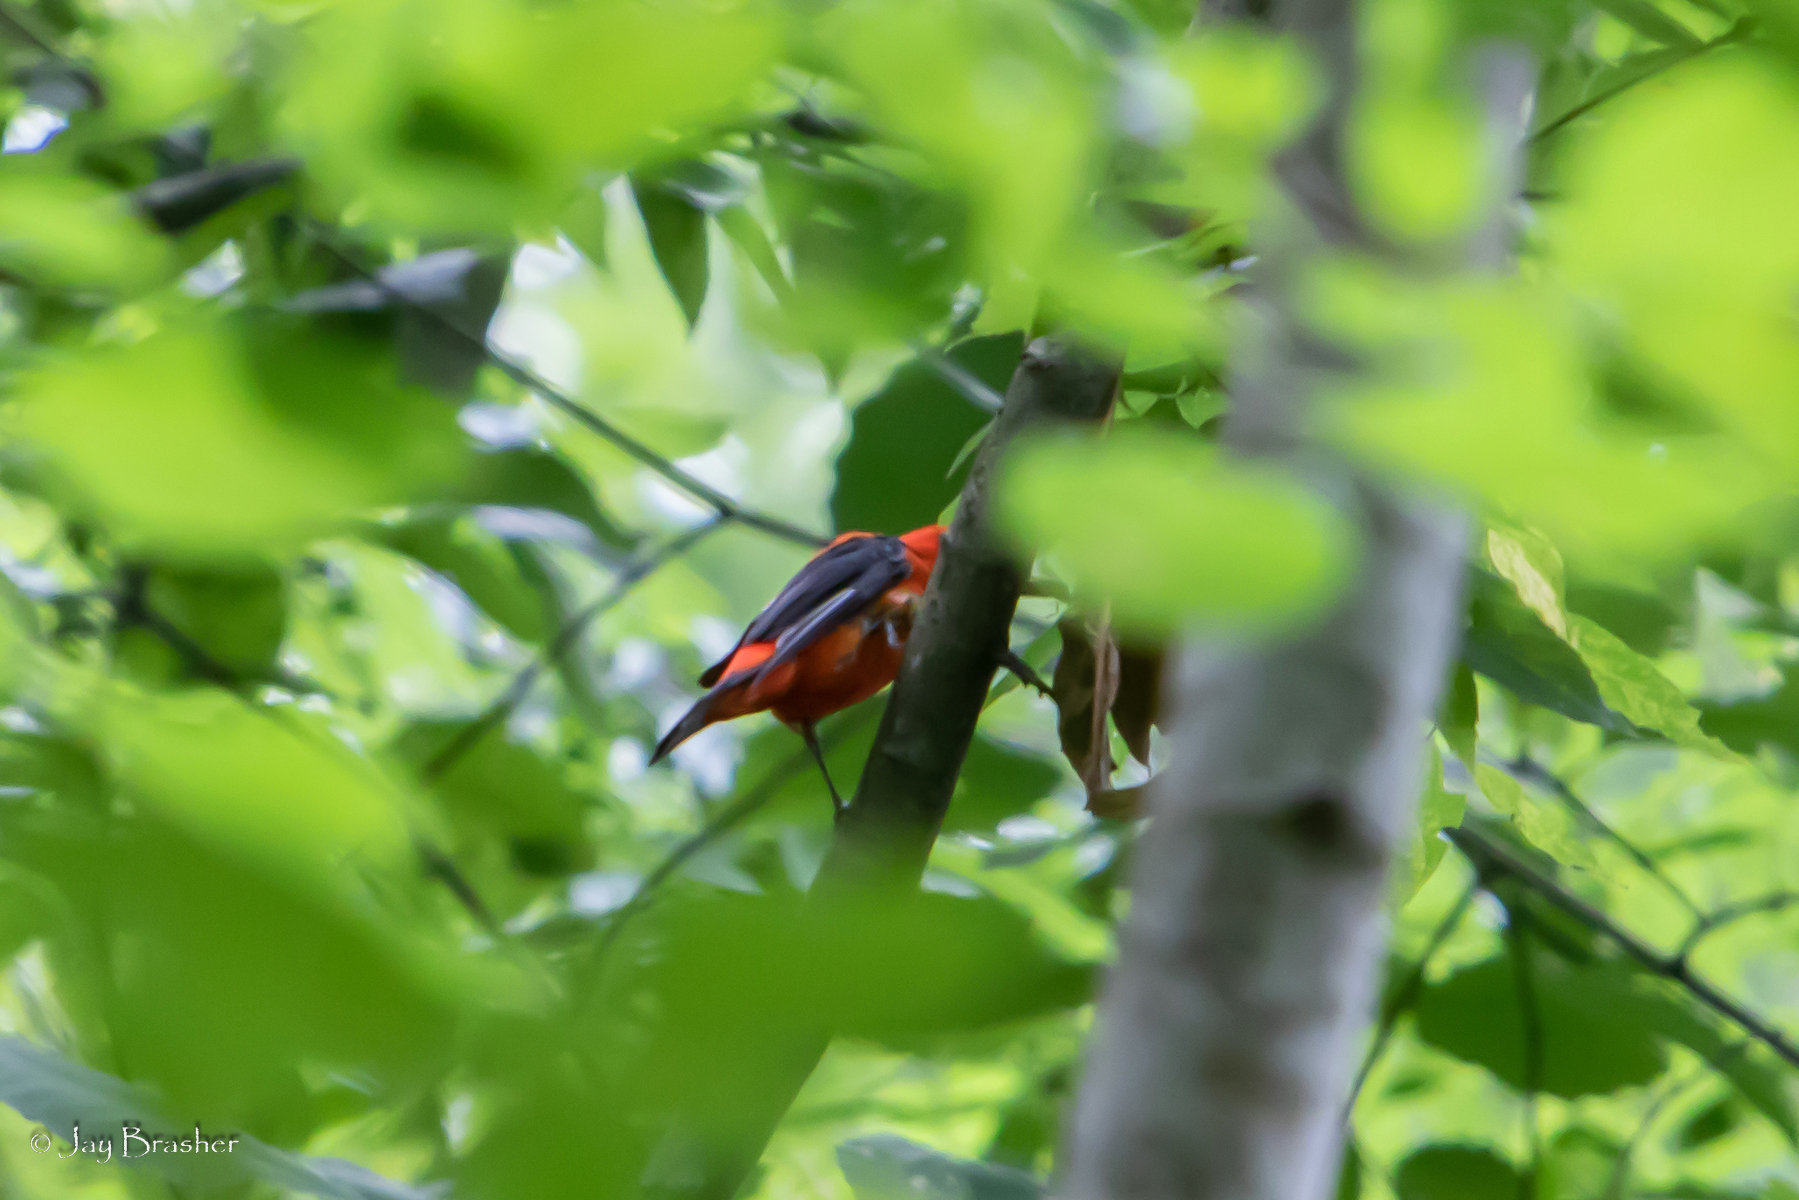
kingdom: Animalia
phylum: Chordata
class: Aves
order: Passeriformes
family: Cardinalidae
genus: Piranga
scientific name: Piranga olivacea
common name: Scarlet tanager
